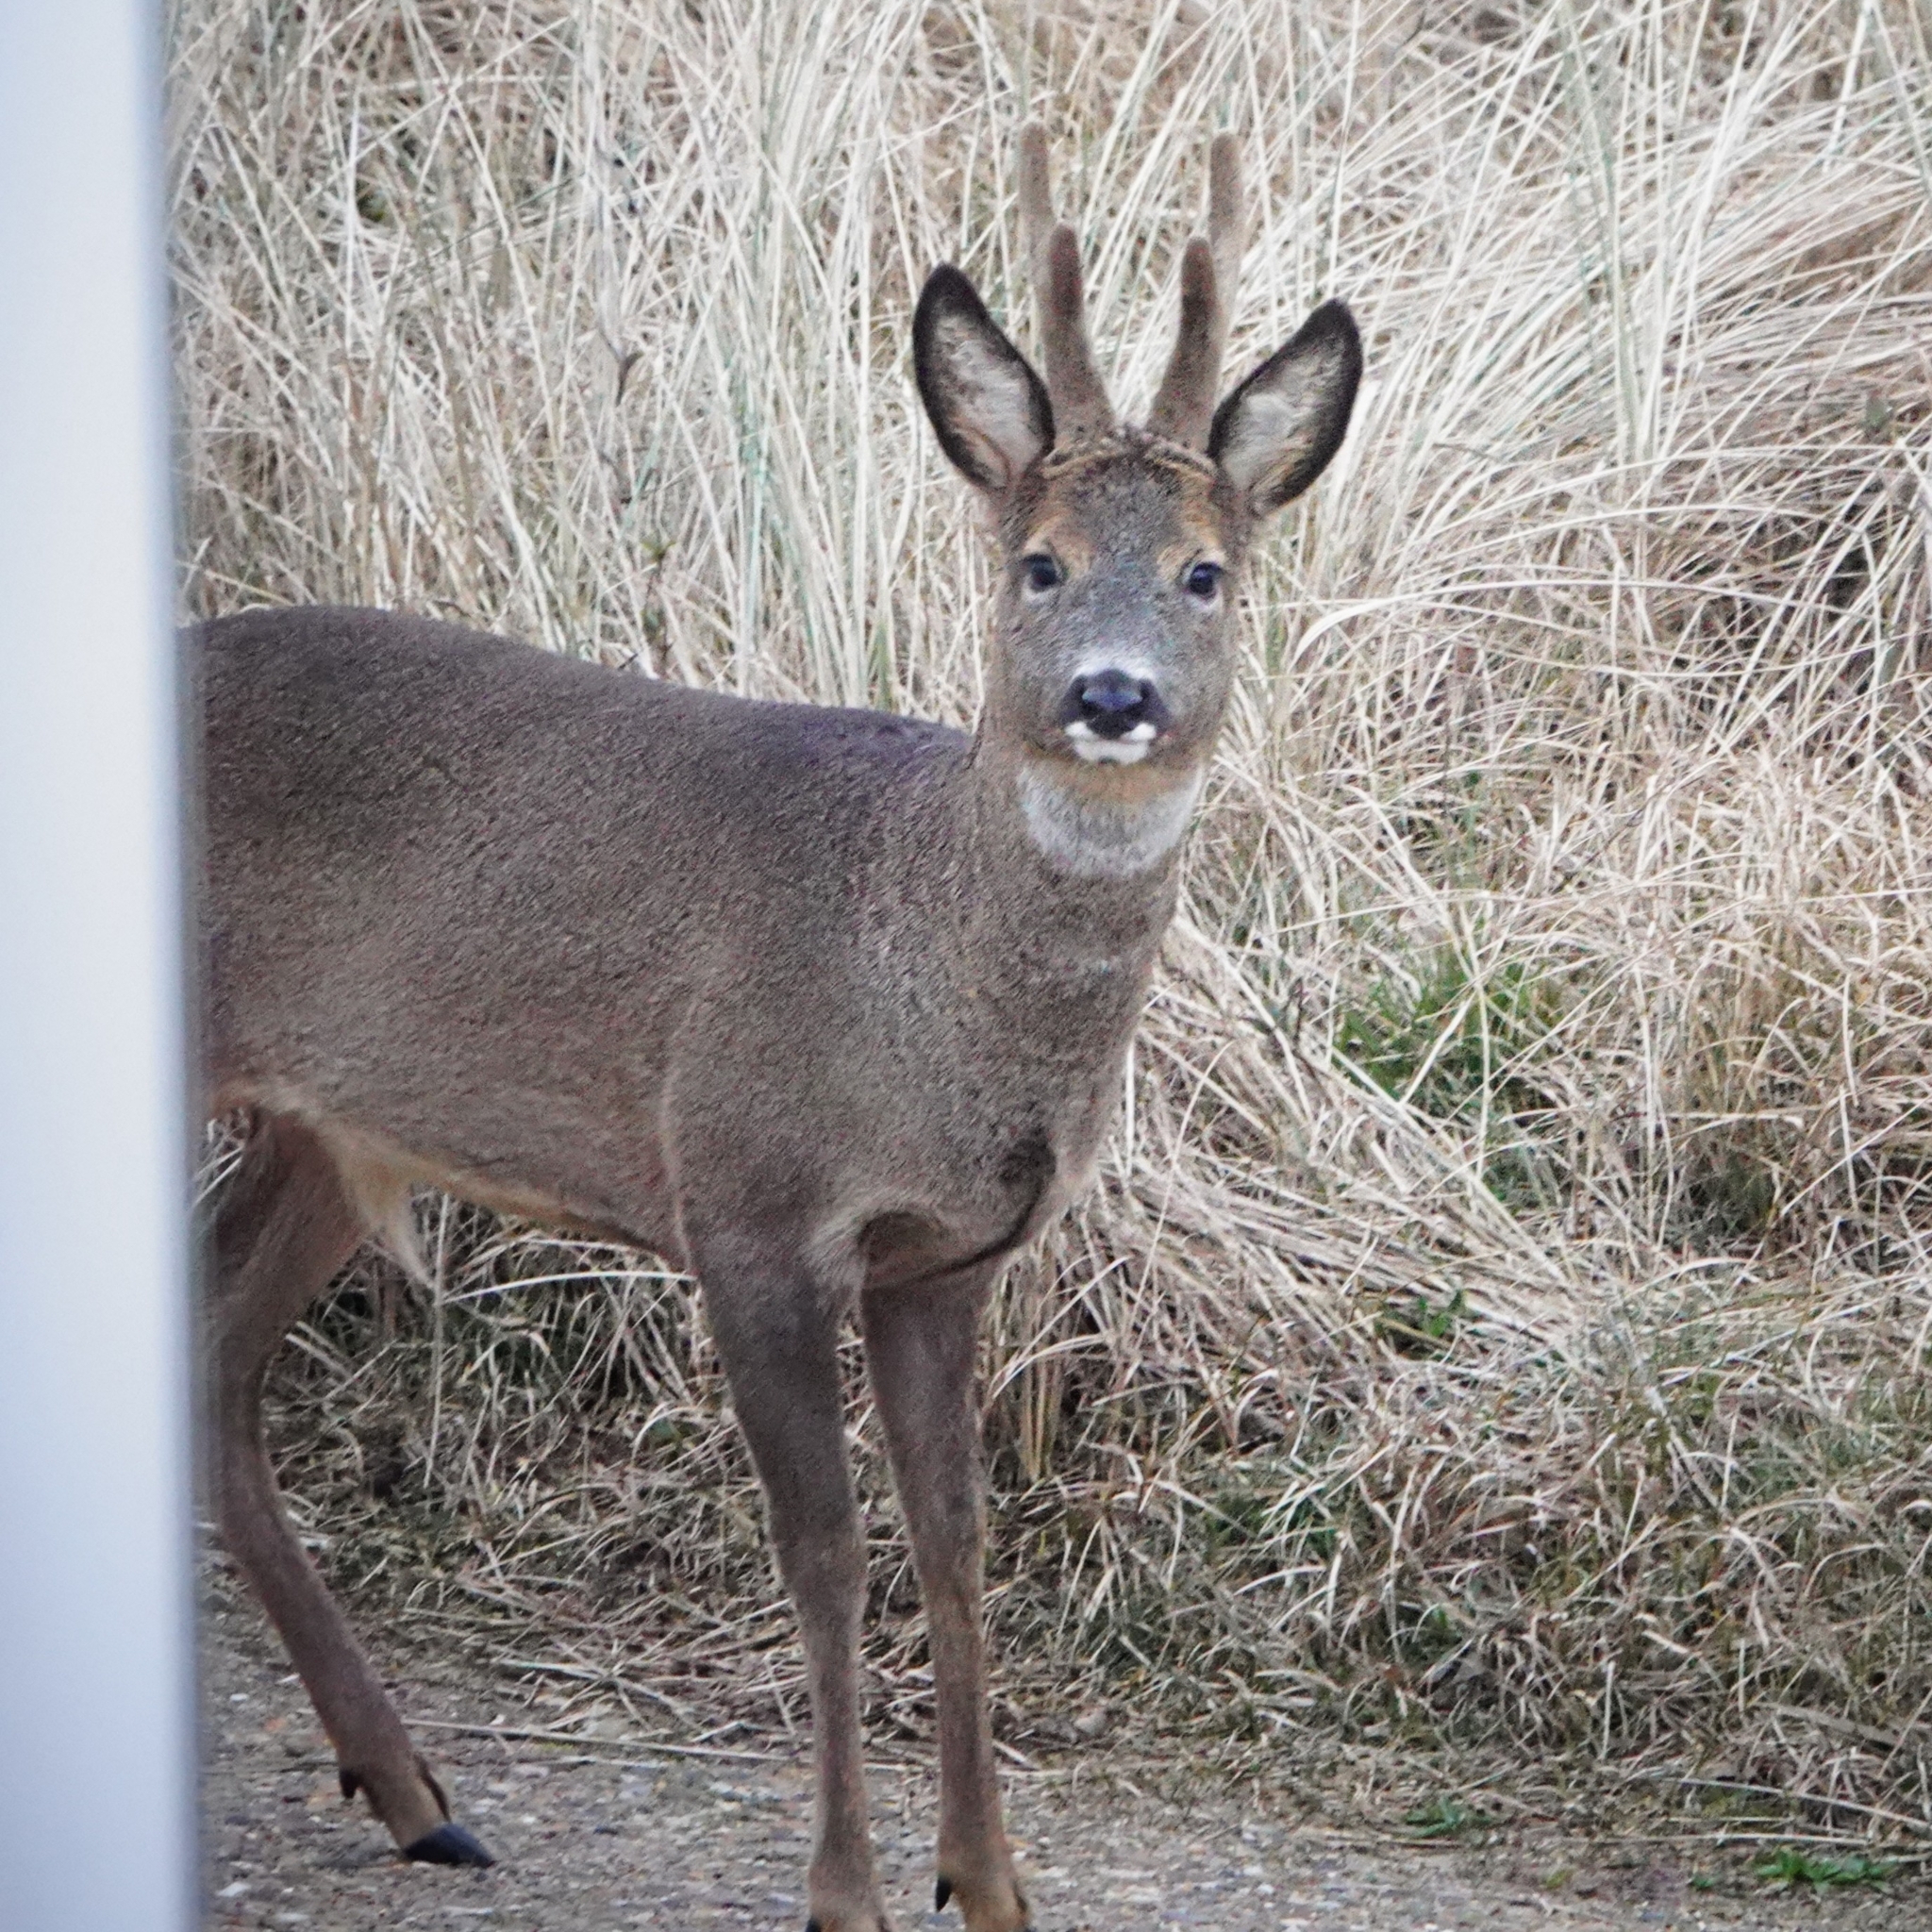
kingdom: Animalia
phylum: Chordata
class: Mammalia
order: Artiodactyla
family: Cervidae
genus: Capreolus
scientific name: Capreolus capreolus
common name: Western roe deer
